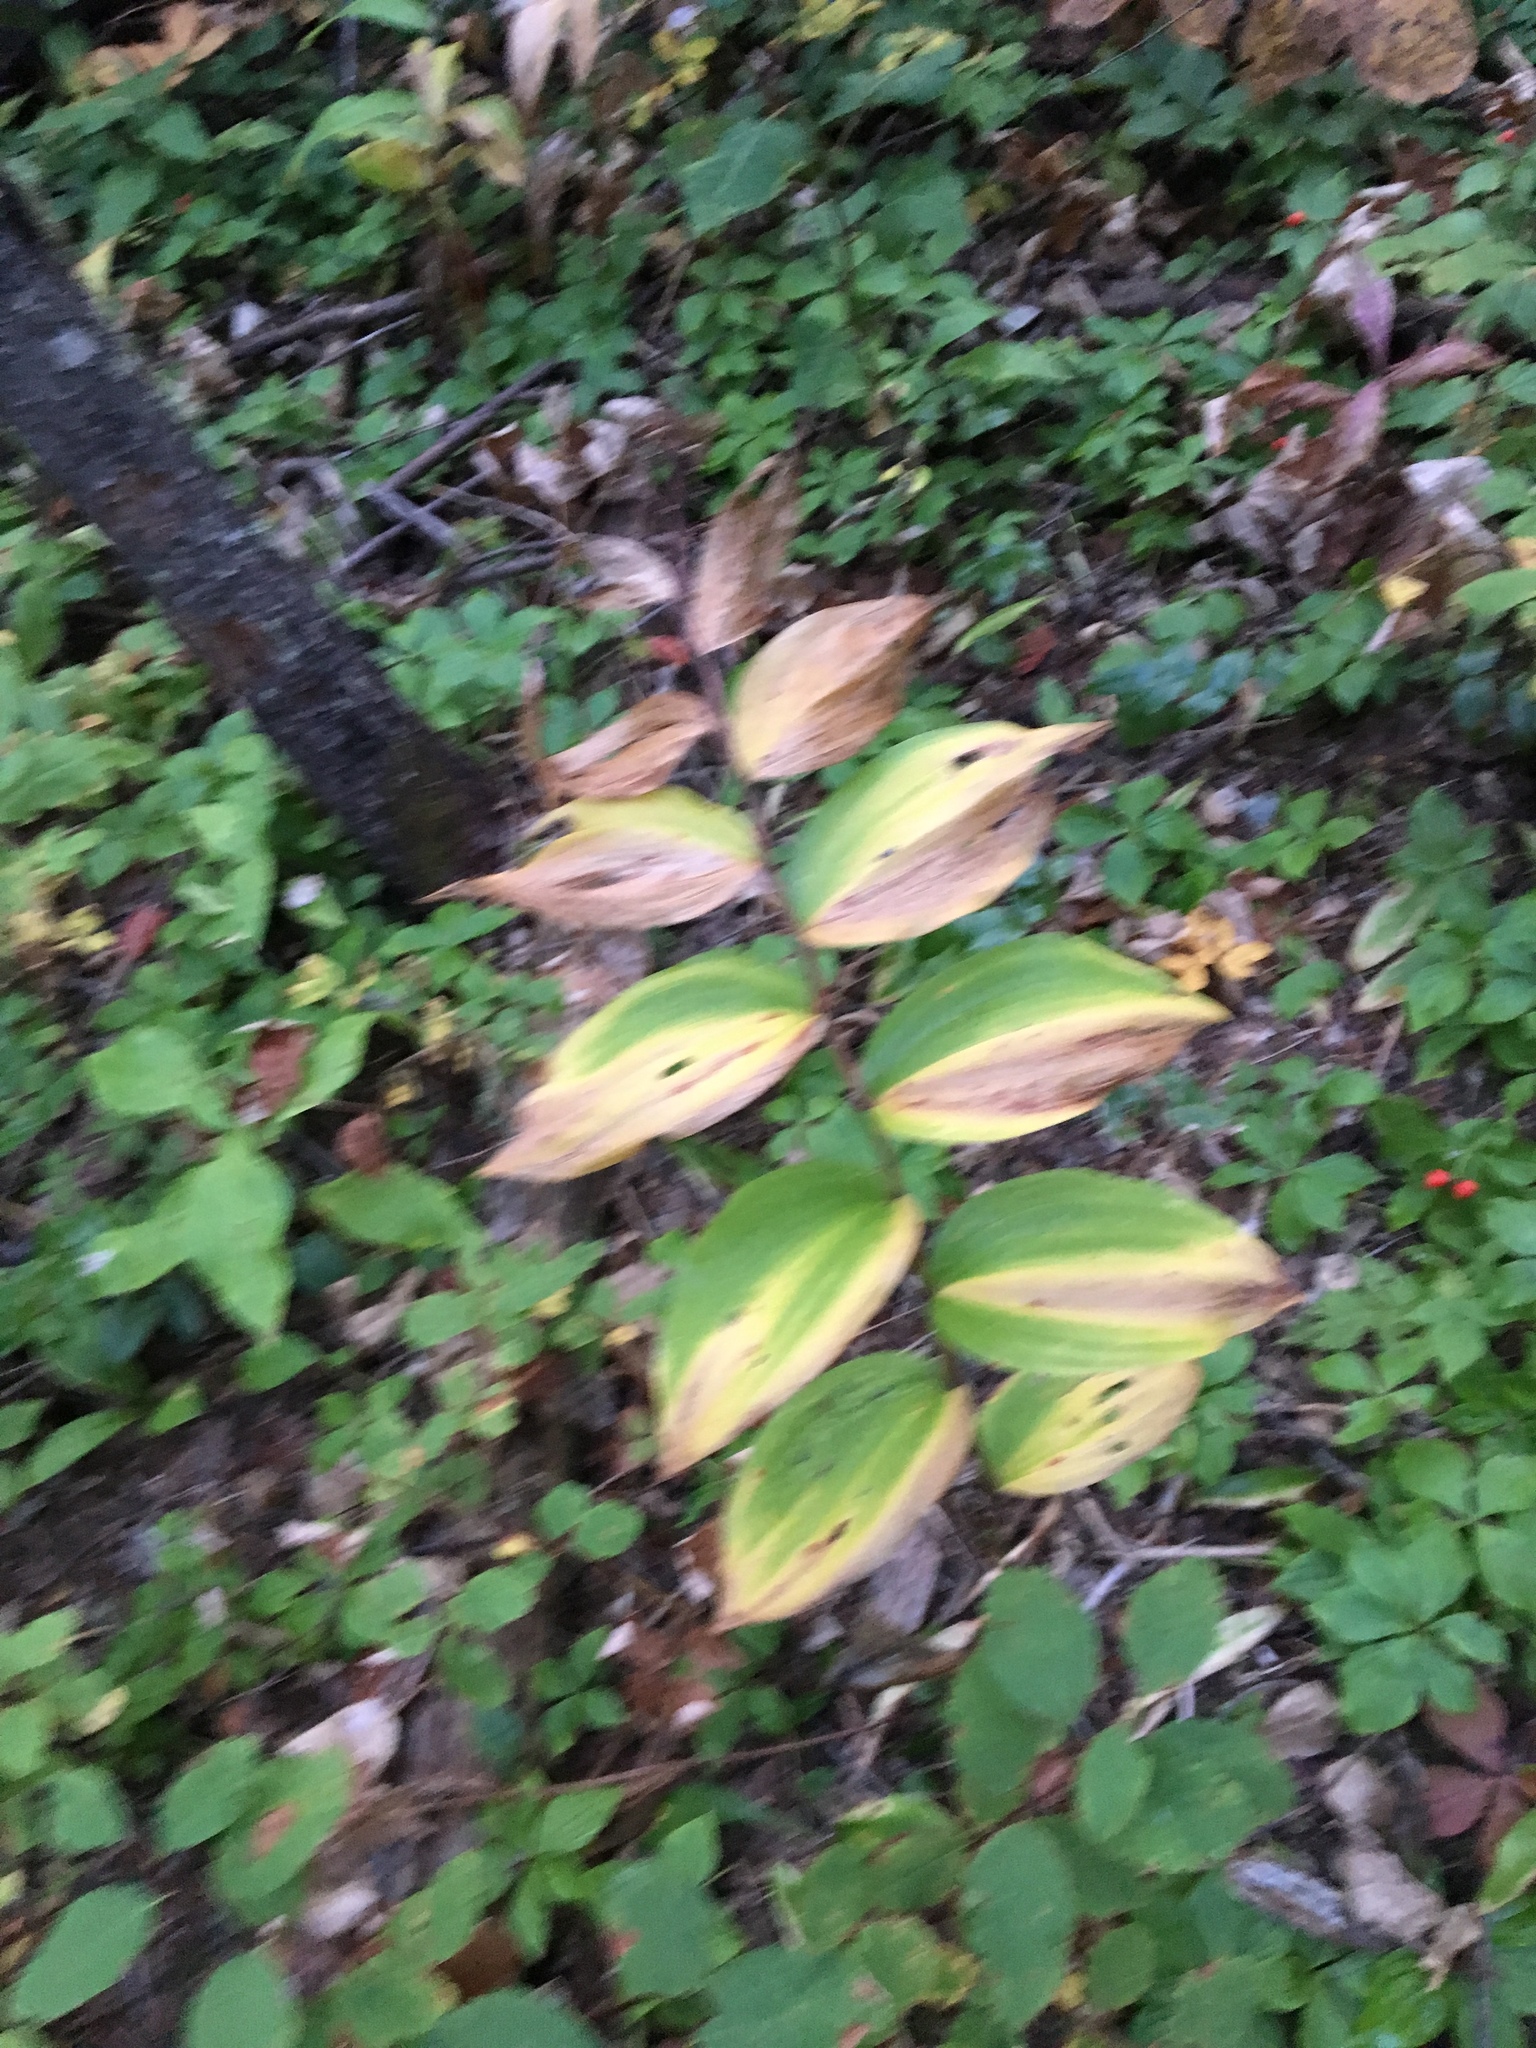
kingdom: Plantae
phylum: Tracheophyta
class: Liliopsida
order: Asparagales
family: Asparagaceae
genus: Maianthemum
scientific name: Maianthemum racemosum
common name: False spikenard
